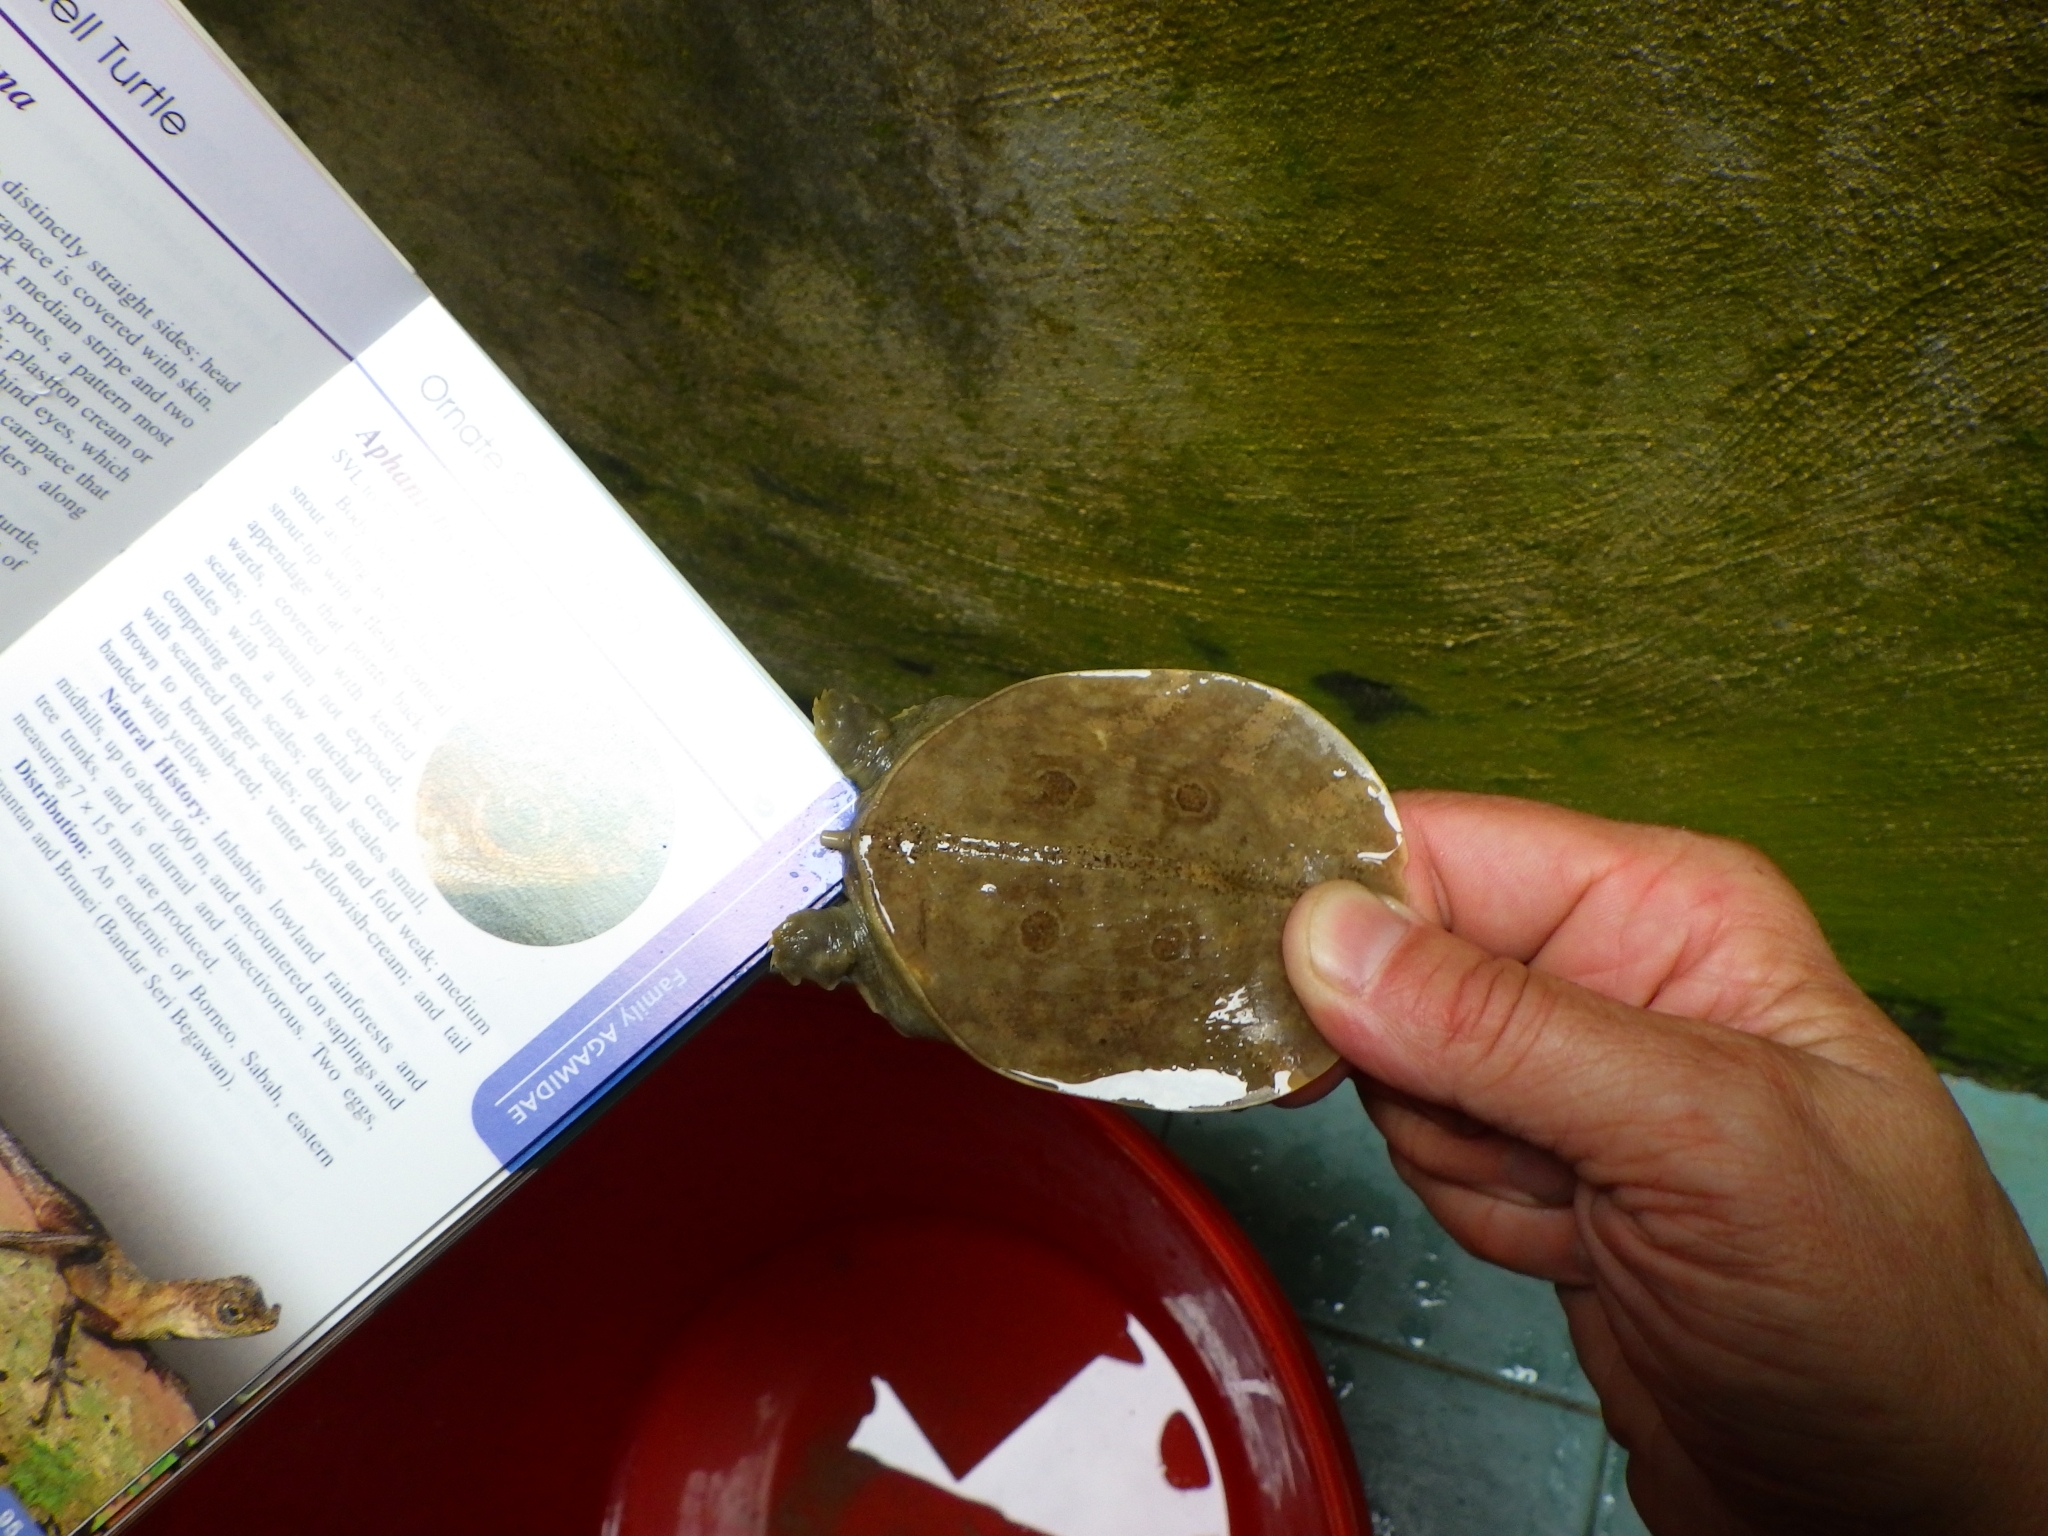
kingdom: Animalia
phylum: Chordata
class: Testudines
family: Trionychidae
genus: Amyda
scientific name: Amyda cartilaginea
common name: Asiatic softshell turtle
